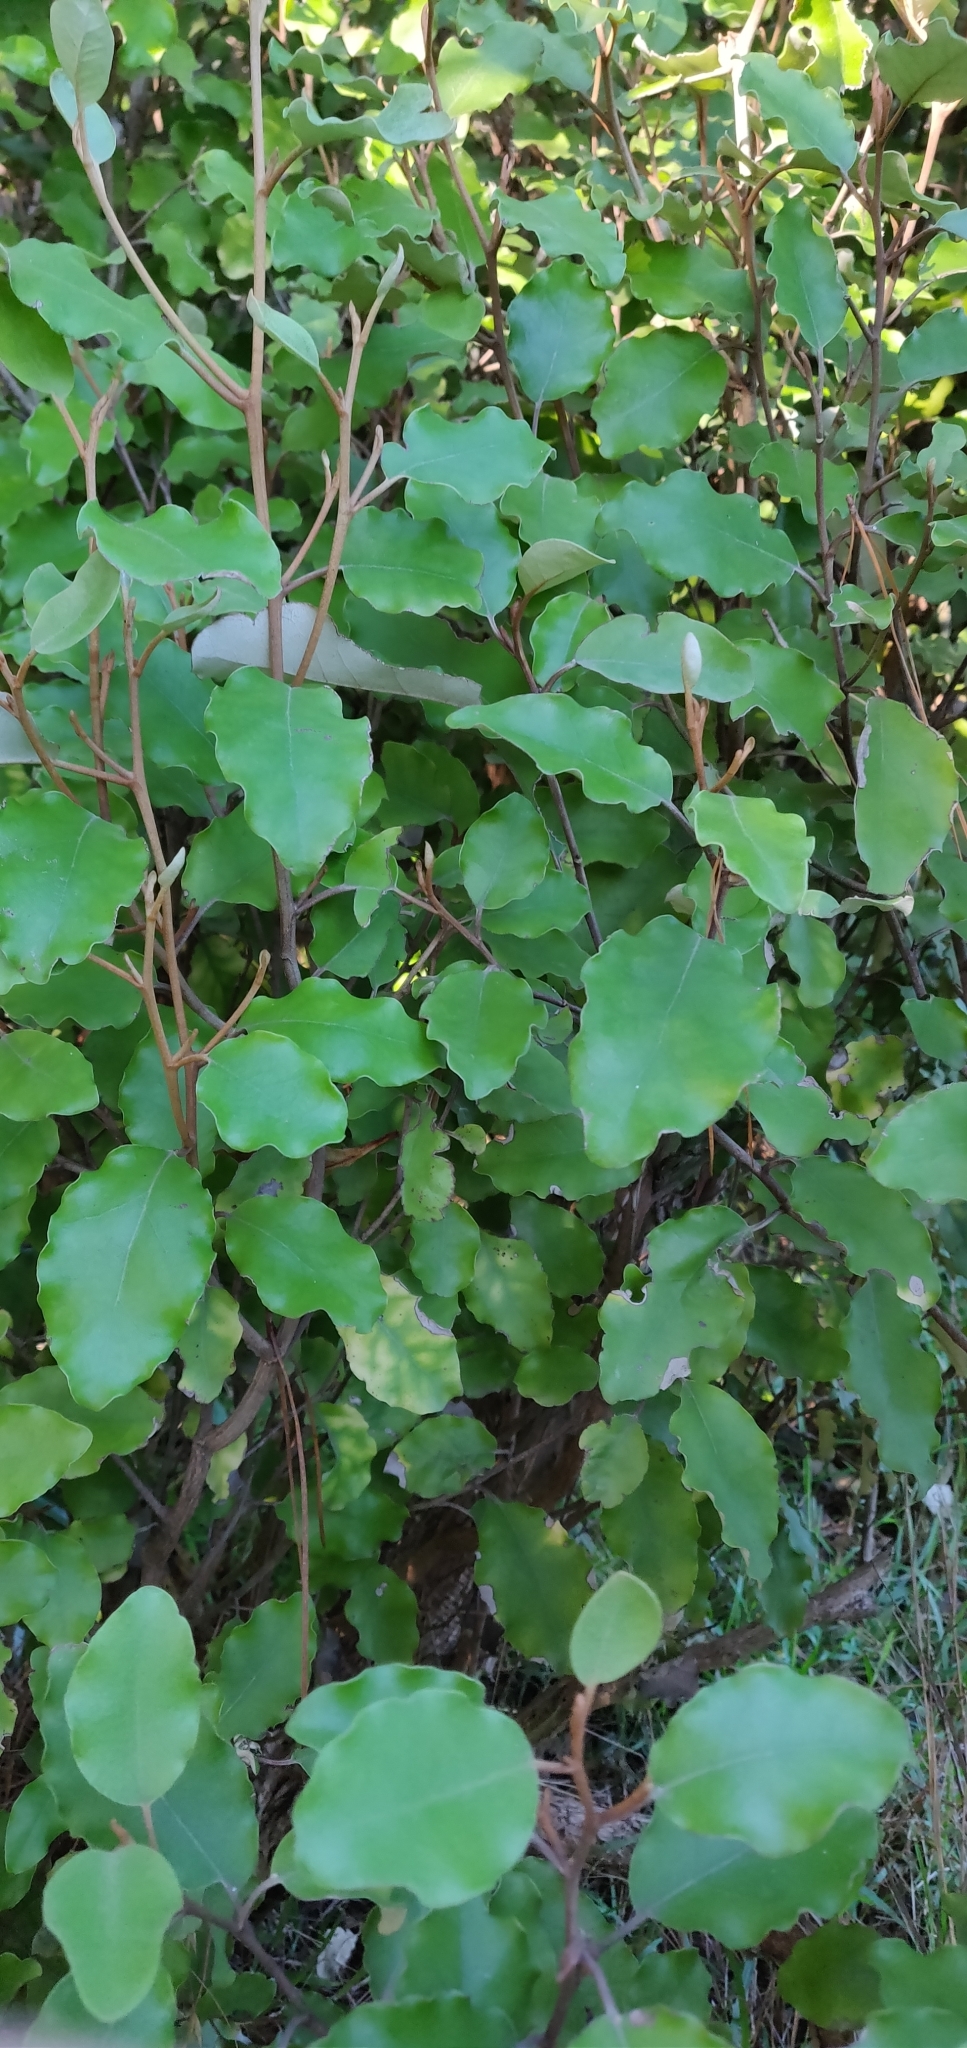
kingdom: Plantae
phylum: Tracheophyta
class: Magnoliopsida
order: Asterales
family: Asteraceae
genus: Olearia
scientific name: Olearia paniculata
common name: Akiraho
